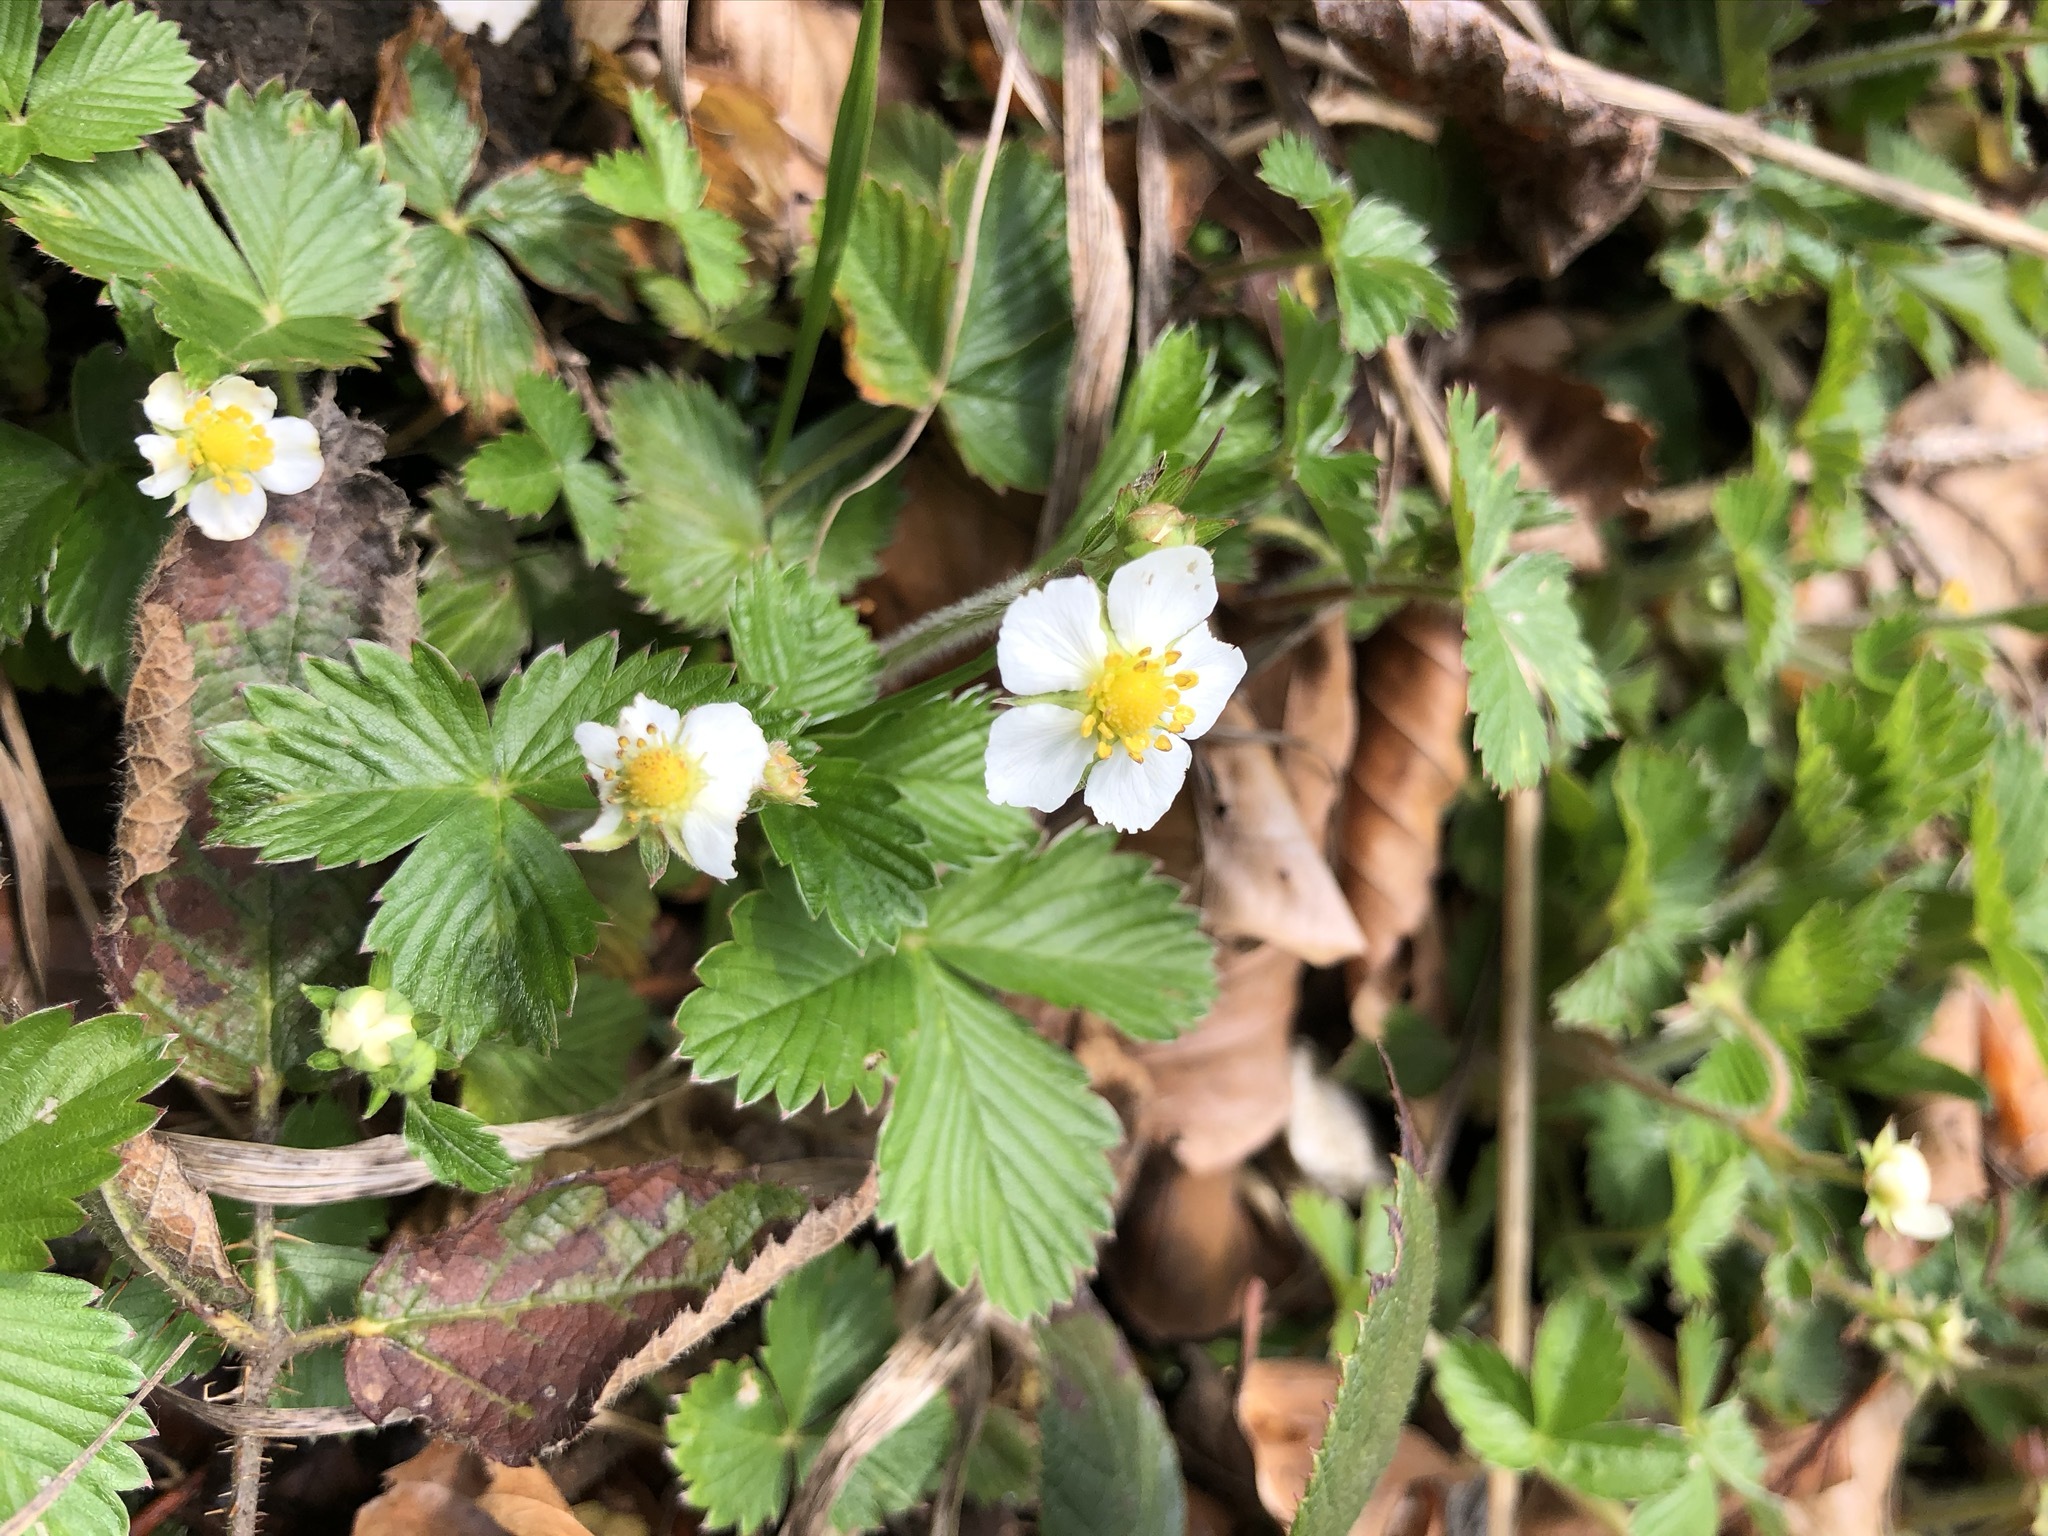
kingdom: Plantae
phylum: Tracheophyta
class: Magnoliopsida
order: Rosales
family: Rosaceae
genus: Fragaria
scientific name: Fragaria vesca
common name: Wild strawberry
